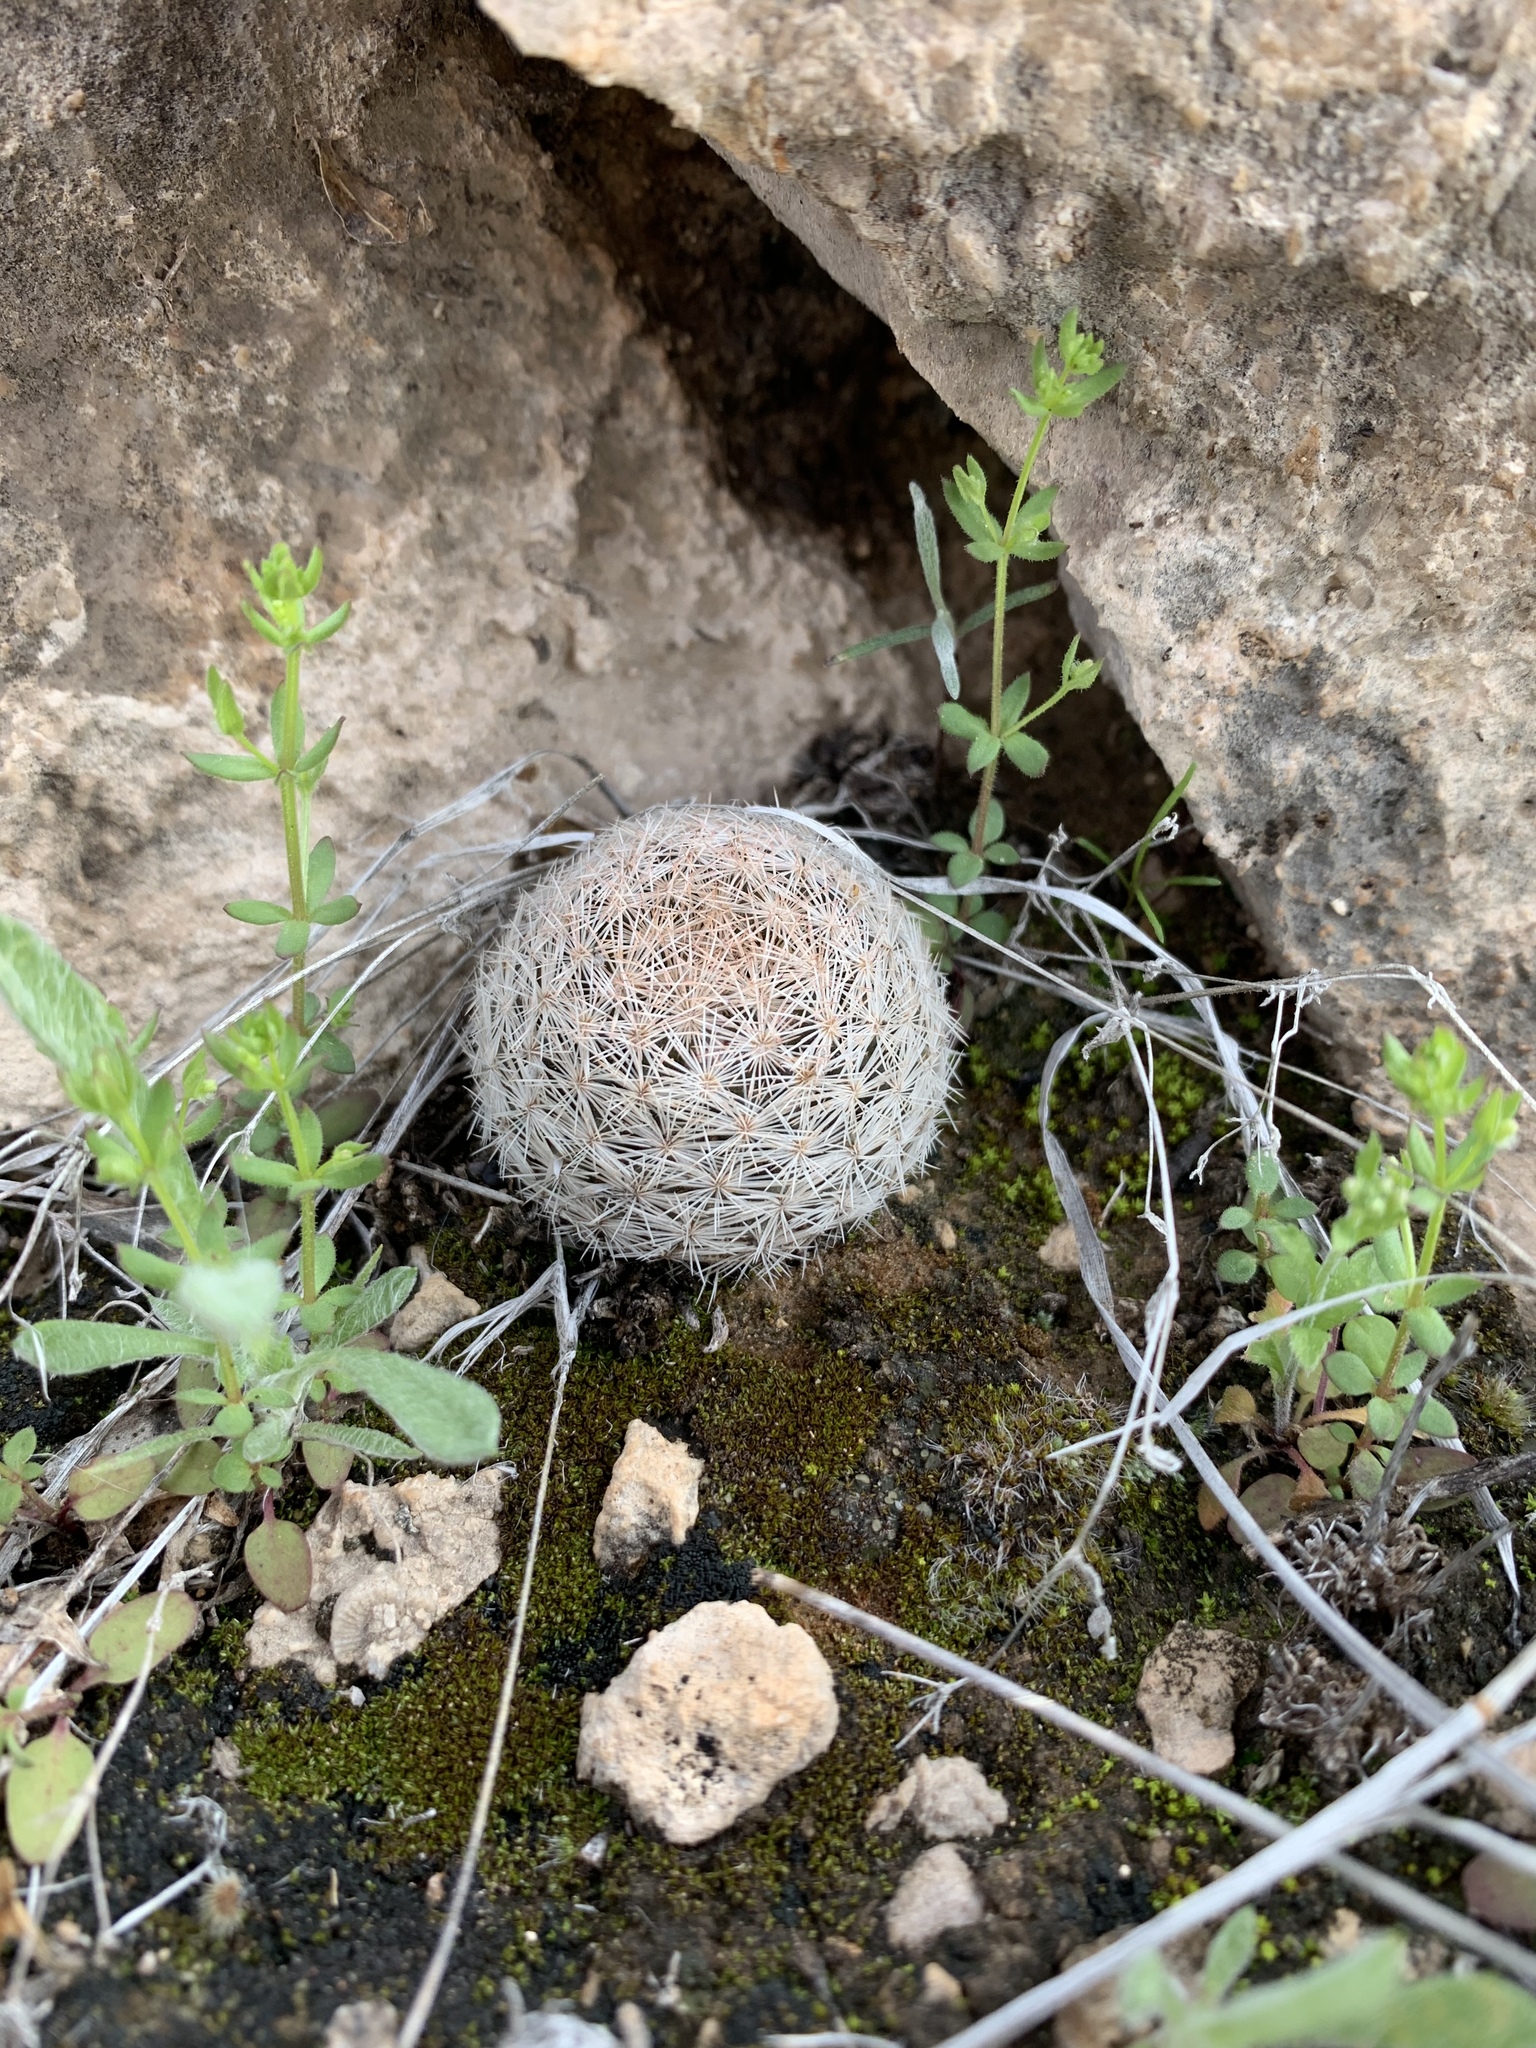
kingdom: Plantae
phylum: Tracheophyta
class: Magnoliopsida
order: Caryophyllales
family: Cactaceae
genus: Mammillaria
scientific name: Mammillaria lasiacantha
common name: Lace-spine nipple cactus
